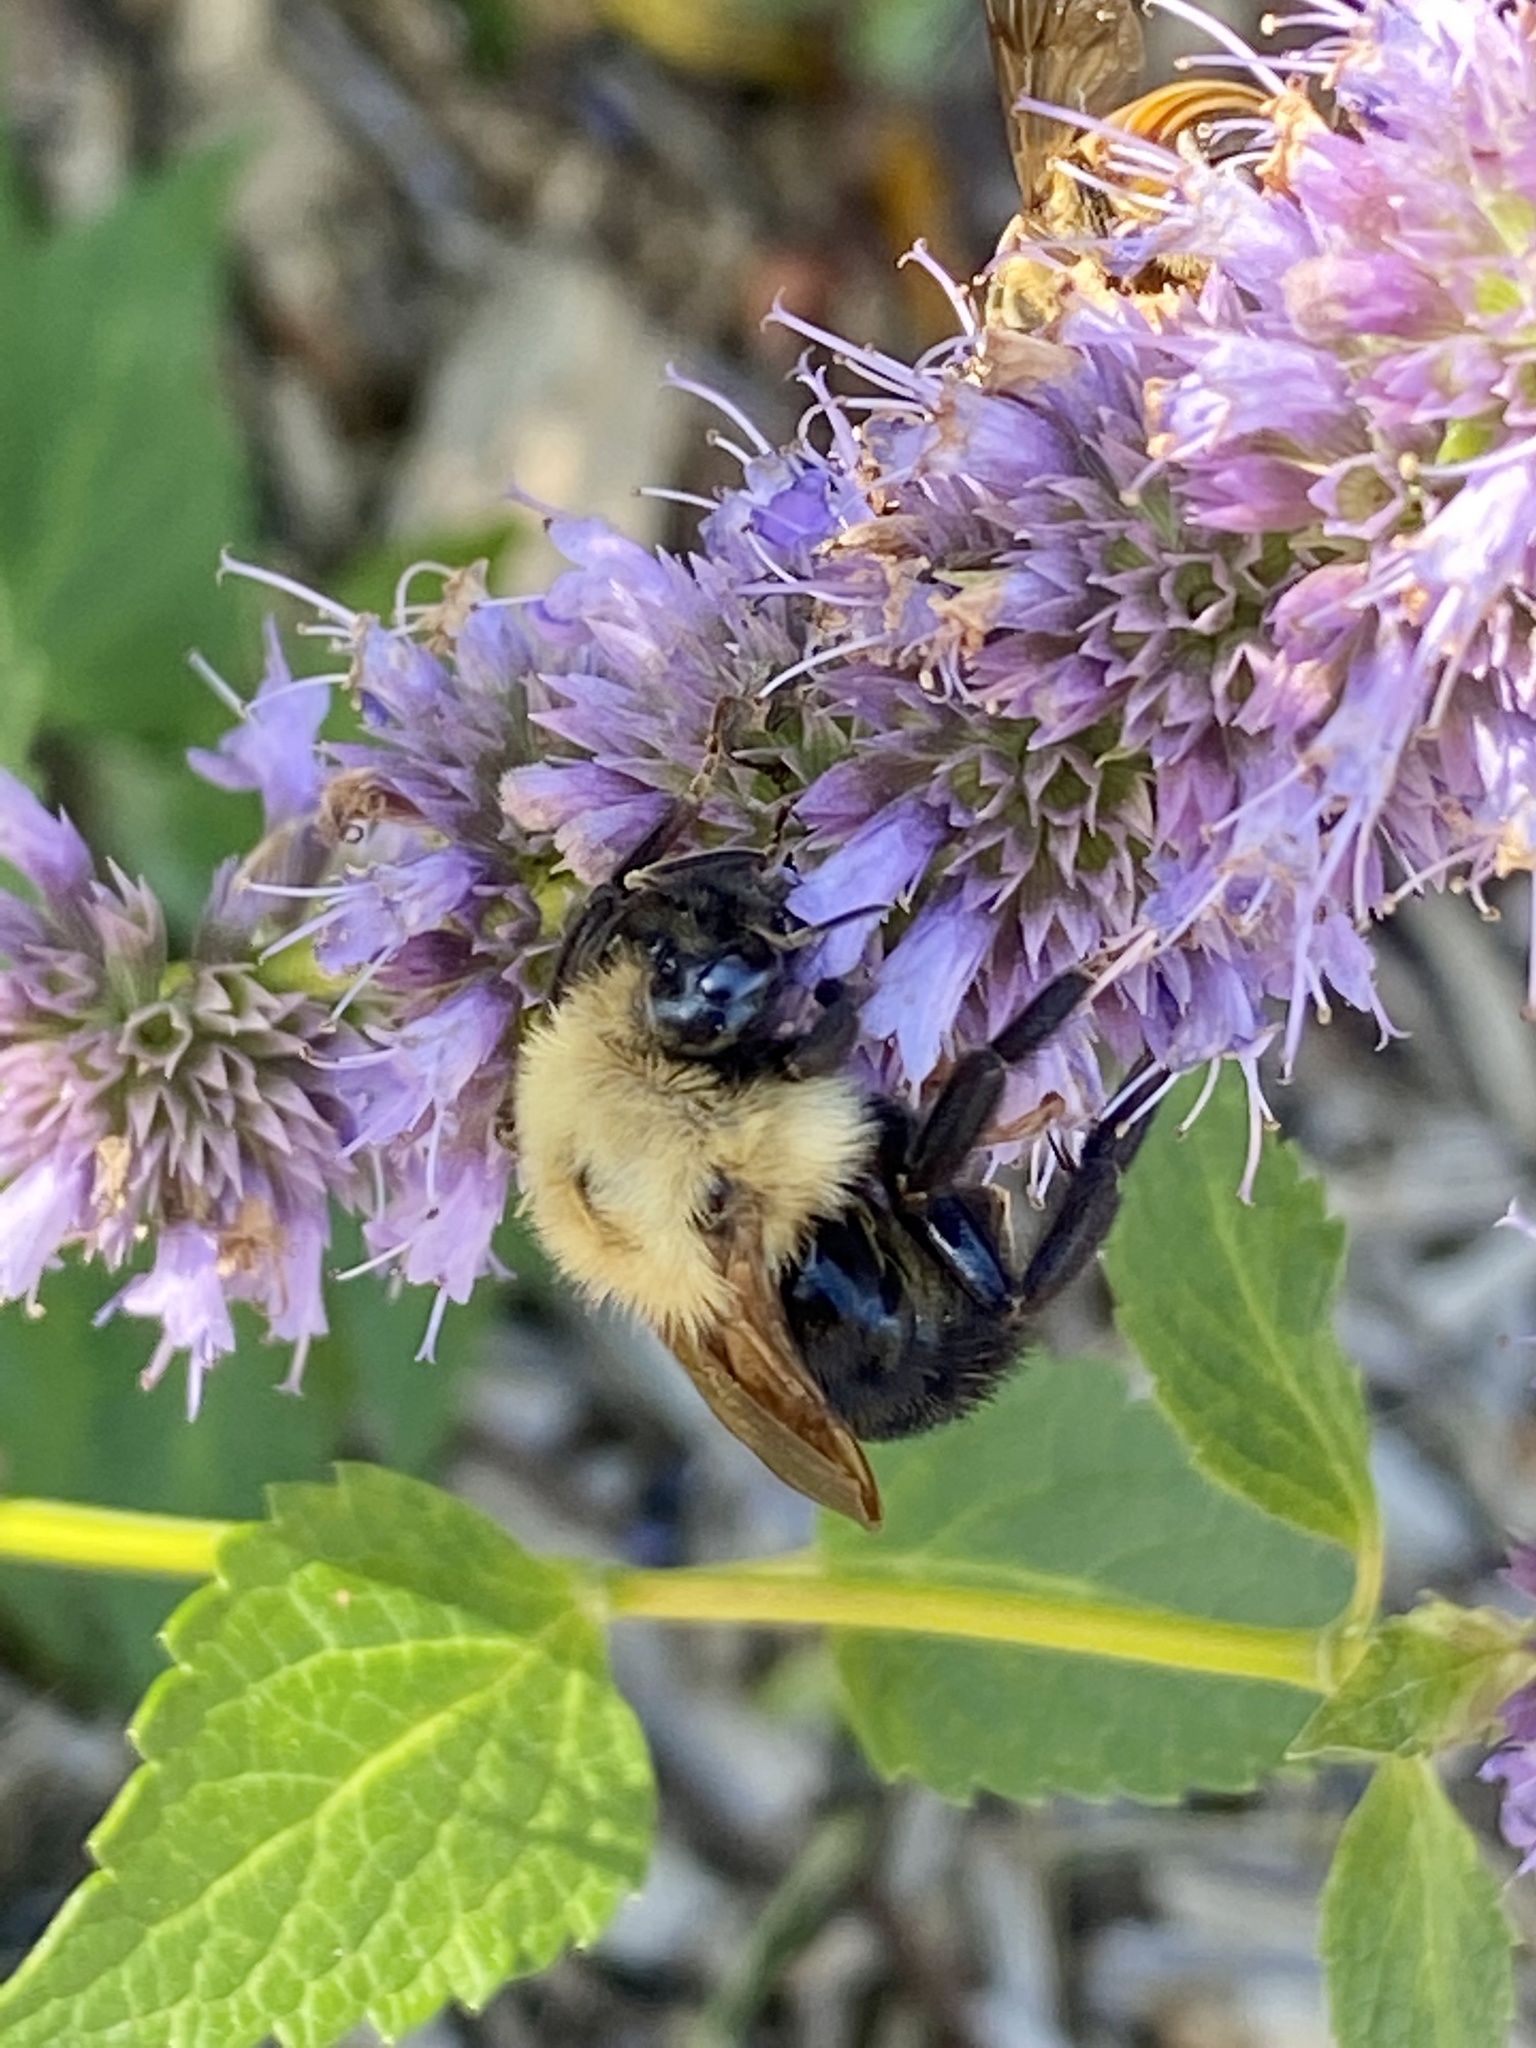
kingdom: Animalia
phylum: Arthropoda
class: Insecta
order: Hymenoptera
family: Apidae
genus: Bombus
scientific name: Bombus citrinus
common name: Lemon cuckoo bumble bee
